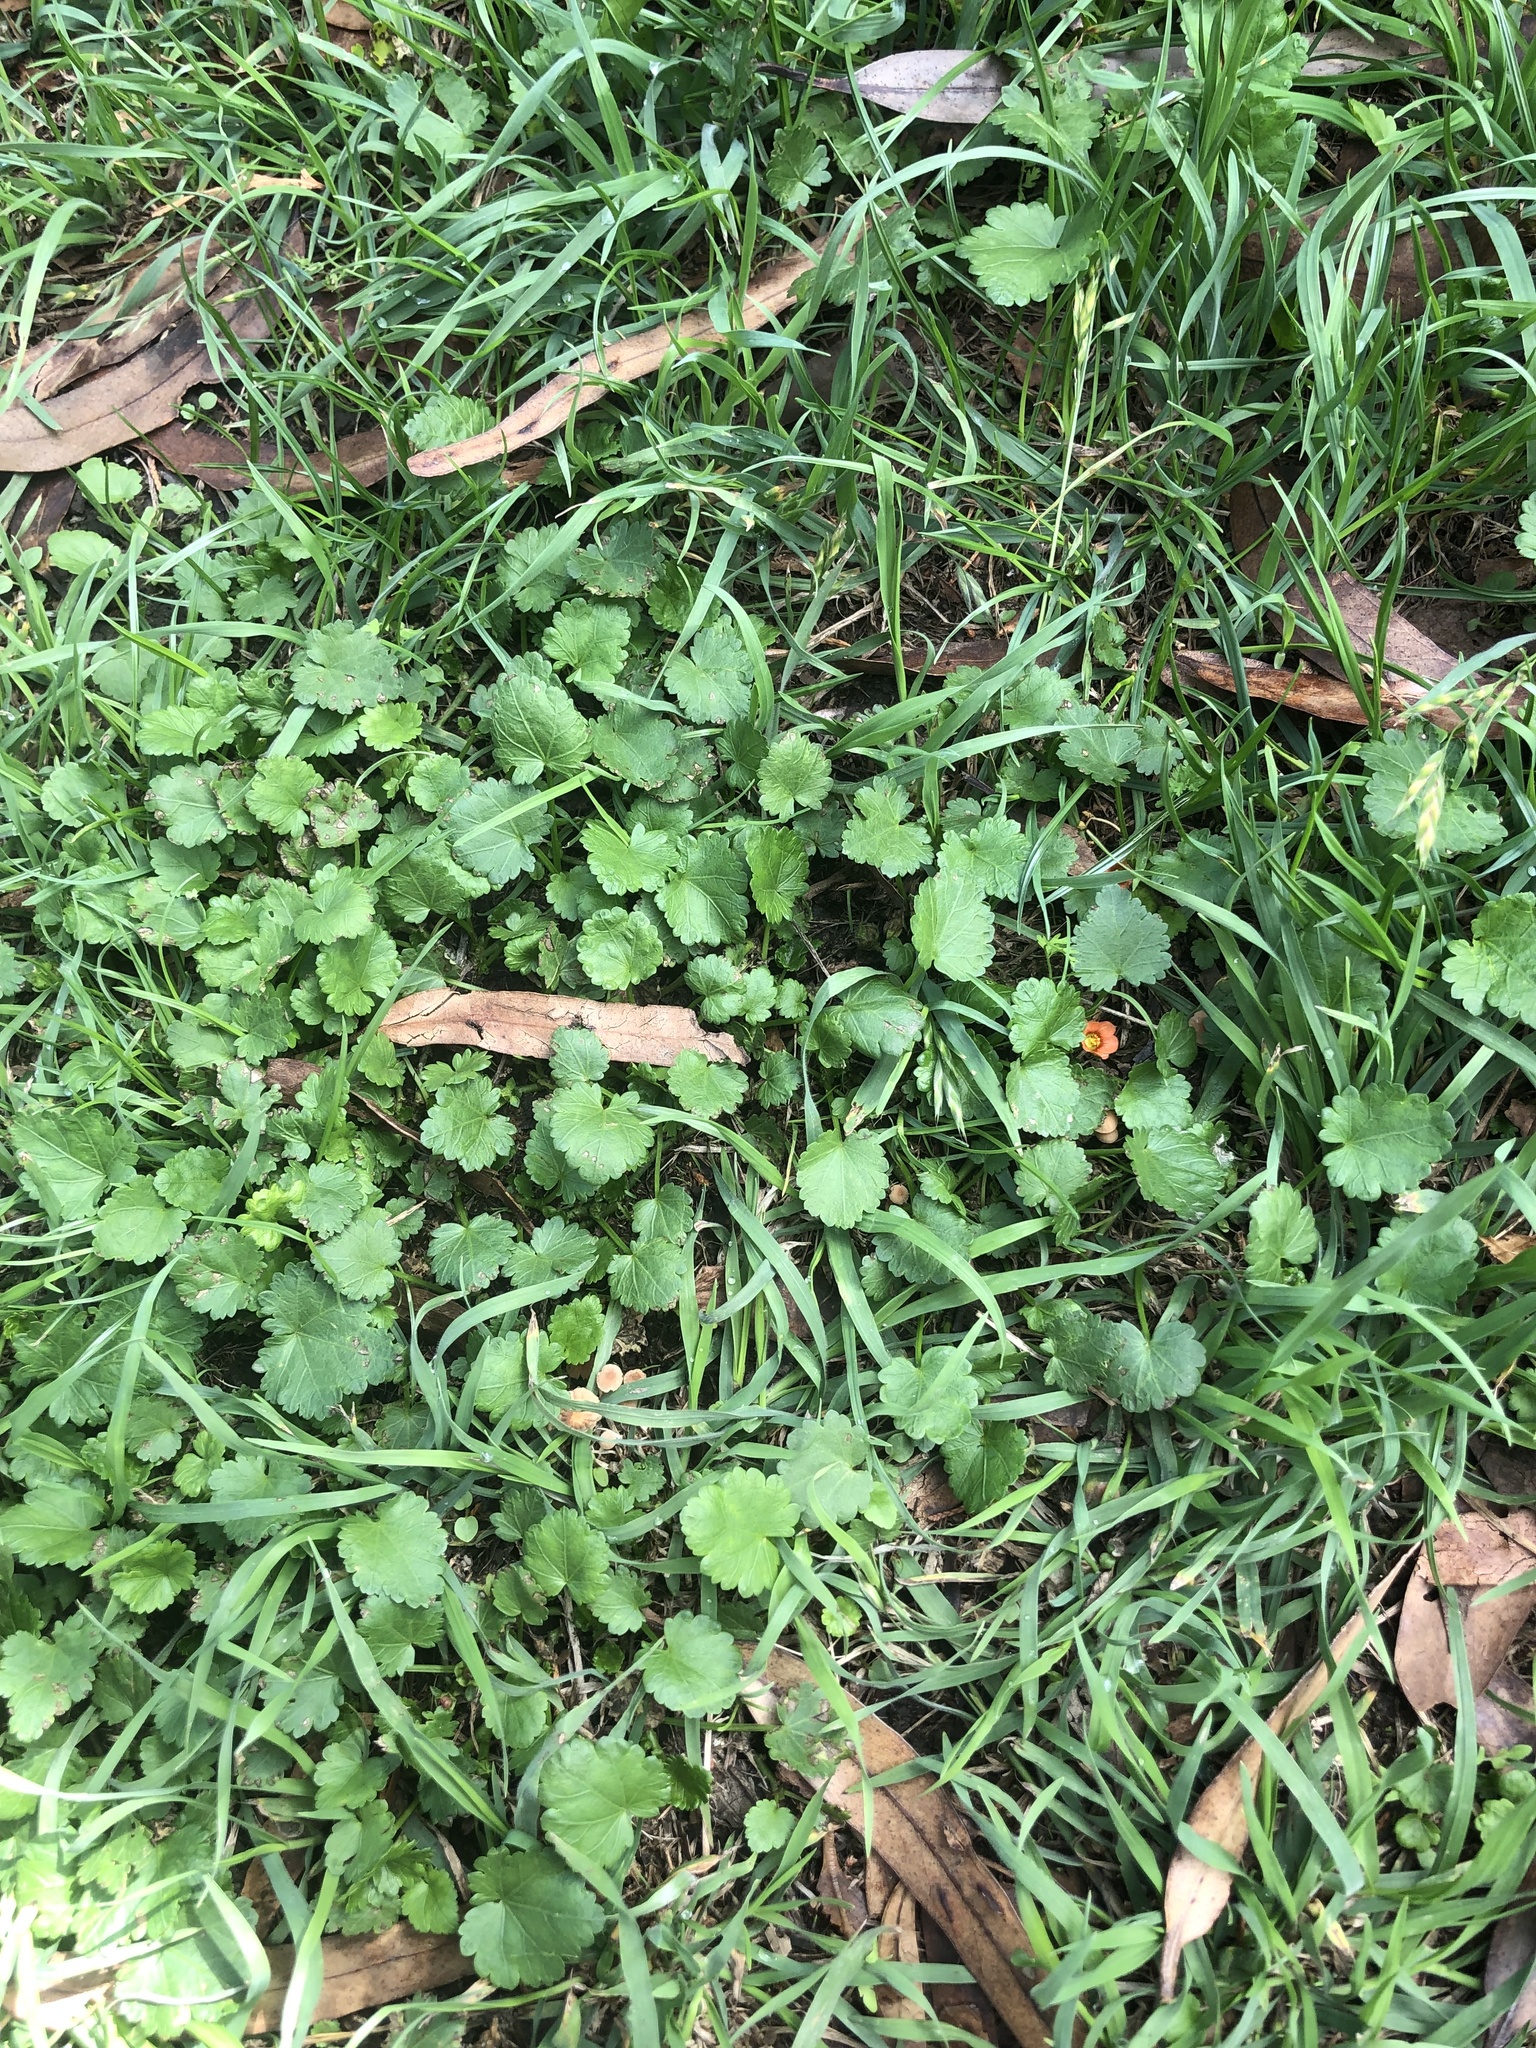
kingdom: Plantae
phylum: Tracheophyta
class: Magnoliopsida
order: Malvales
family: Malvaceae
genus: Modiola
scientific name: Modiola caroliniana
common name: Carolina bristlemallow
